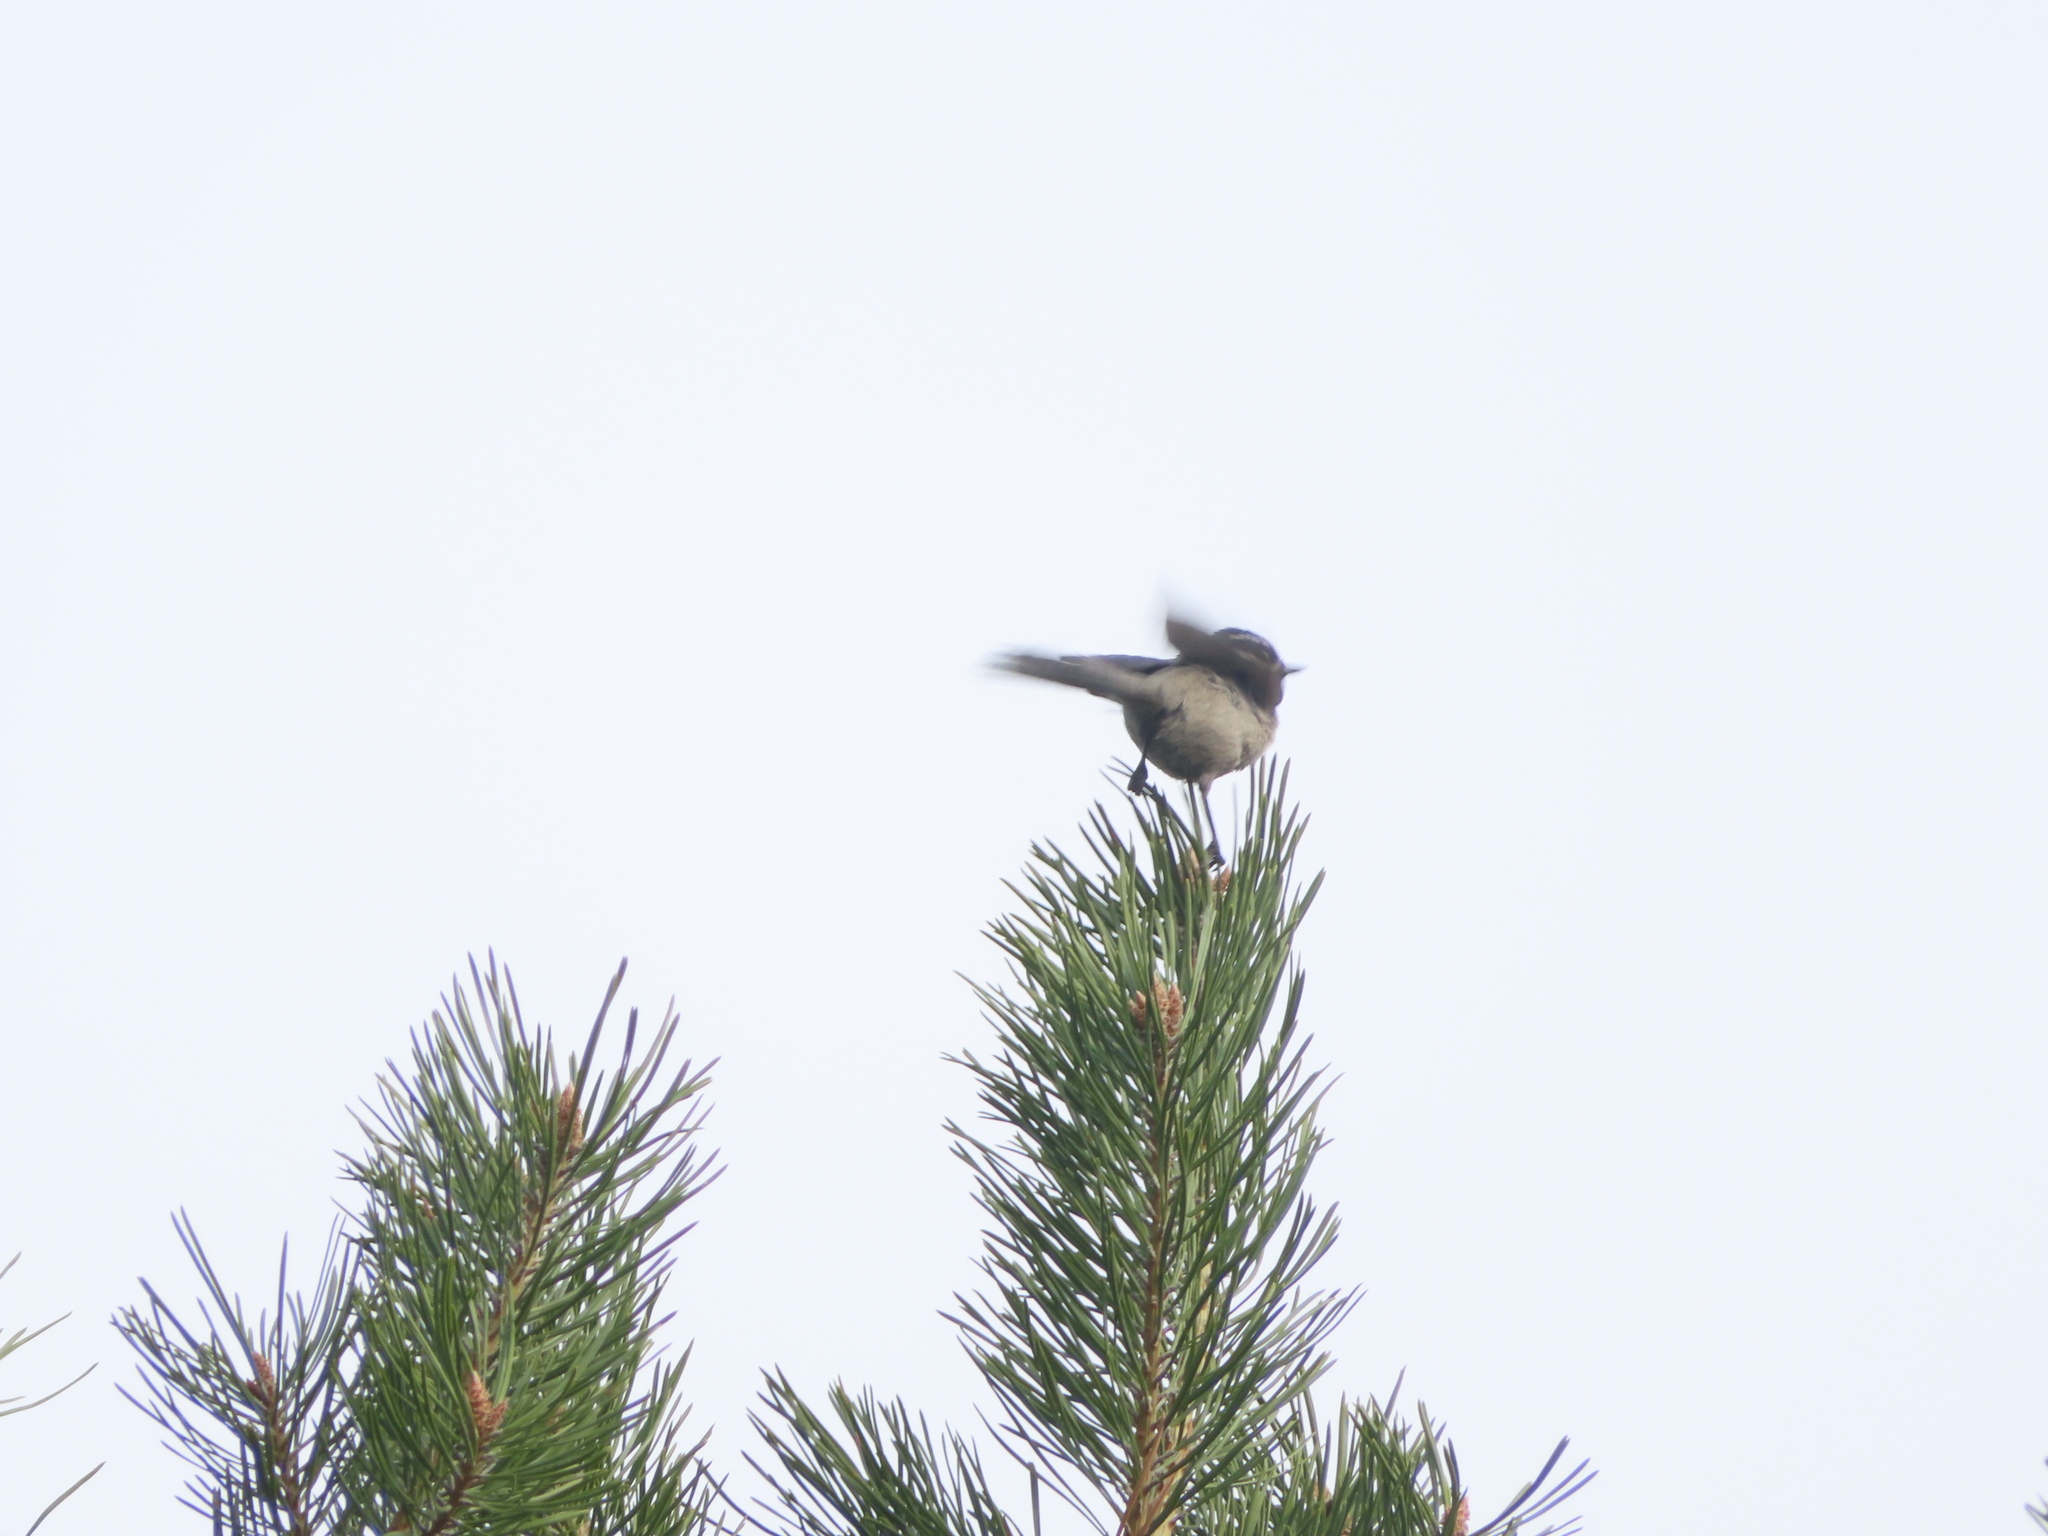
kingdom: Animalia
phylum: Chordata
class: Aves
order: Passeriformes
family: Paridae
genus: Poecile
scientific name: Poecile gambeli
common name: Mountain chickadee
